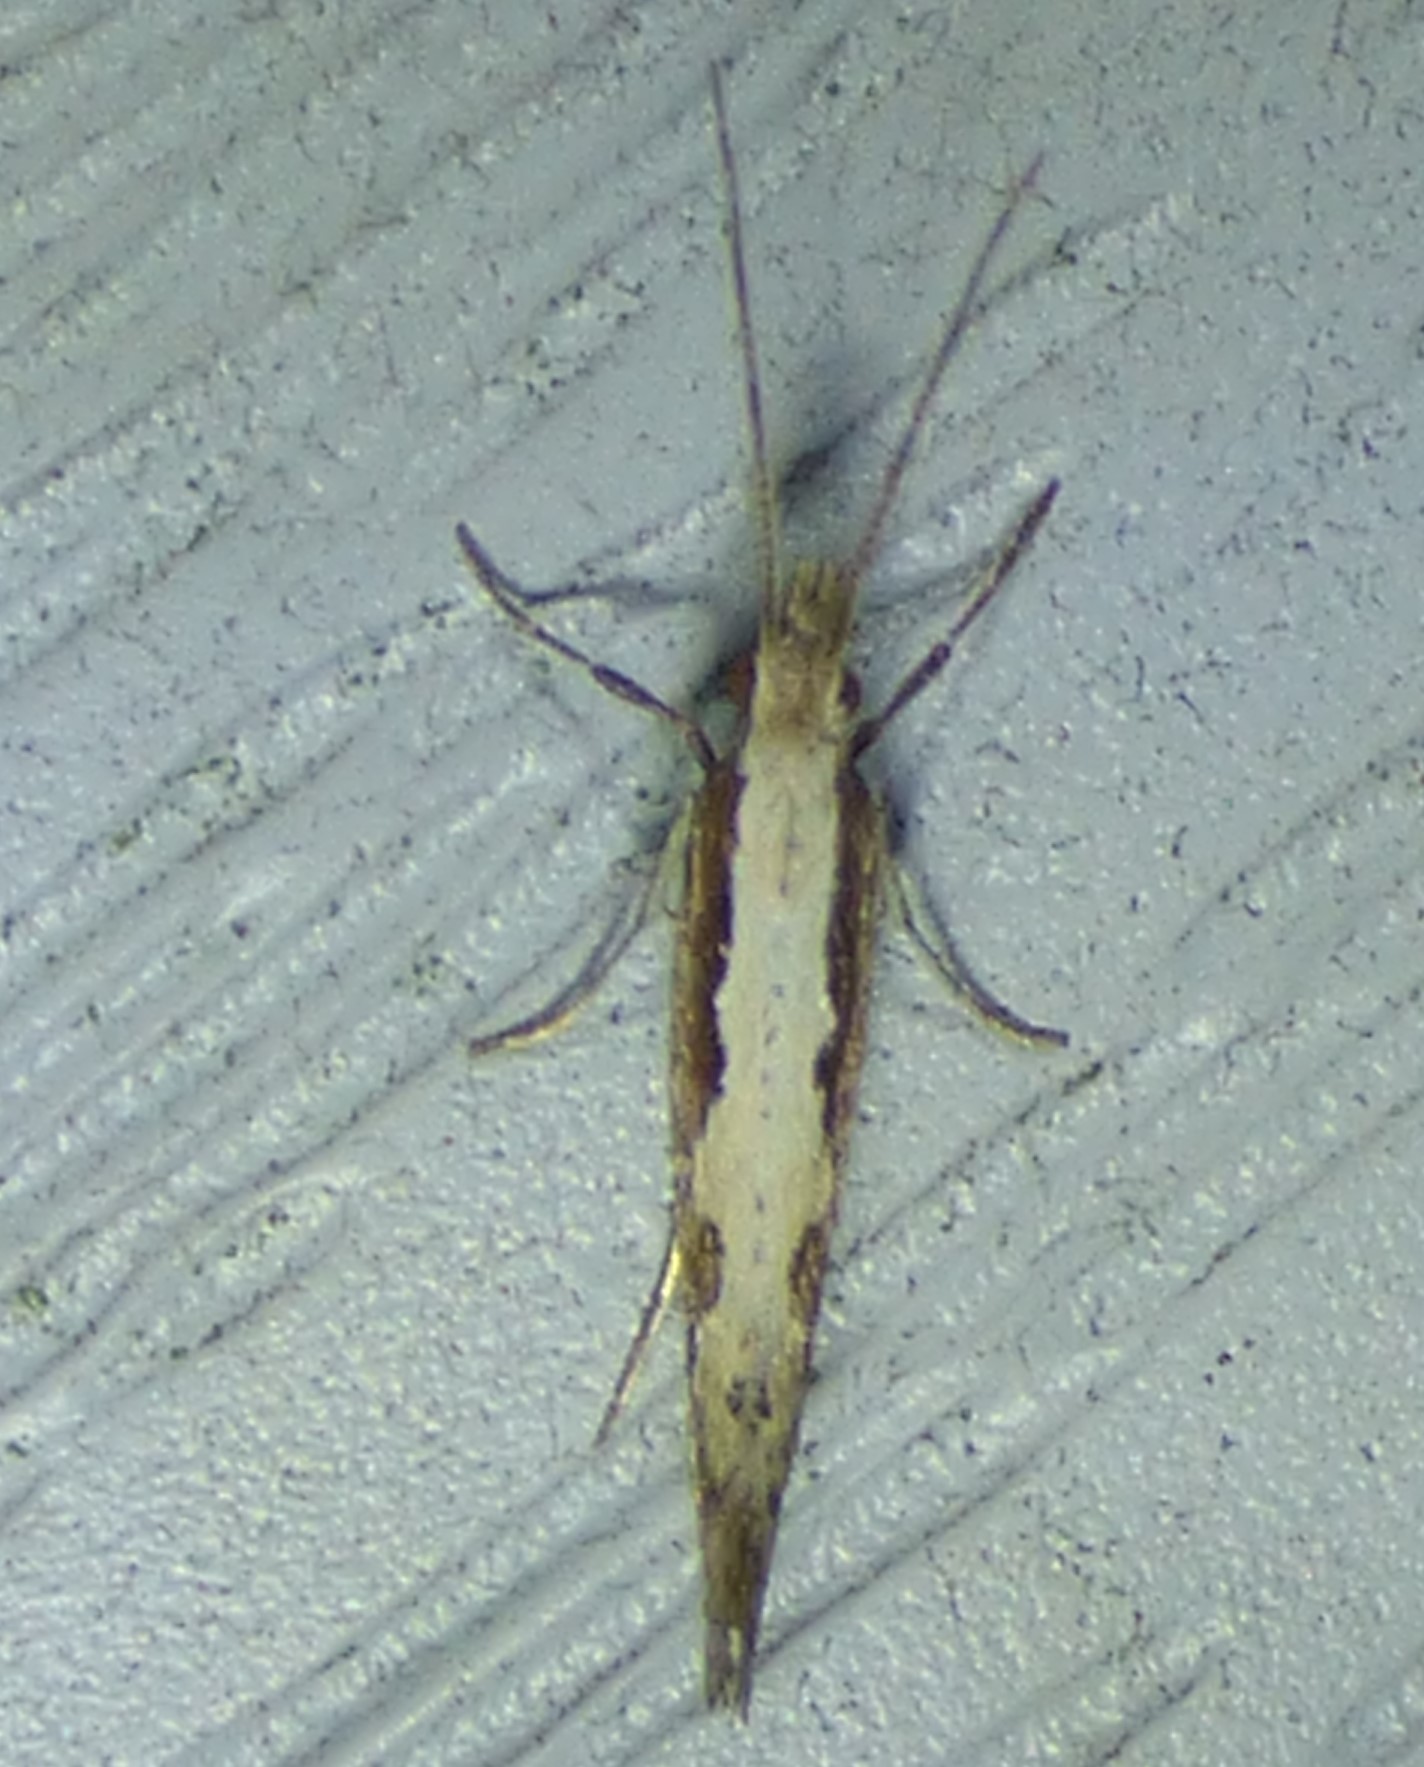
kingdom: Animalia
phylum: Arthropoda
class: Insecta
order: Lepidoptera
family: Plutellidae
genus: Plutella
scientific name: Plutella xylostella
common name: Diamond-back moth
